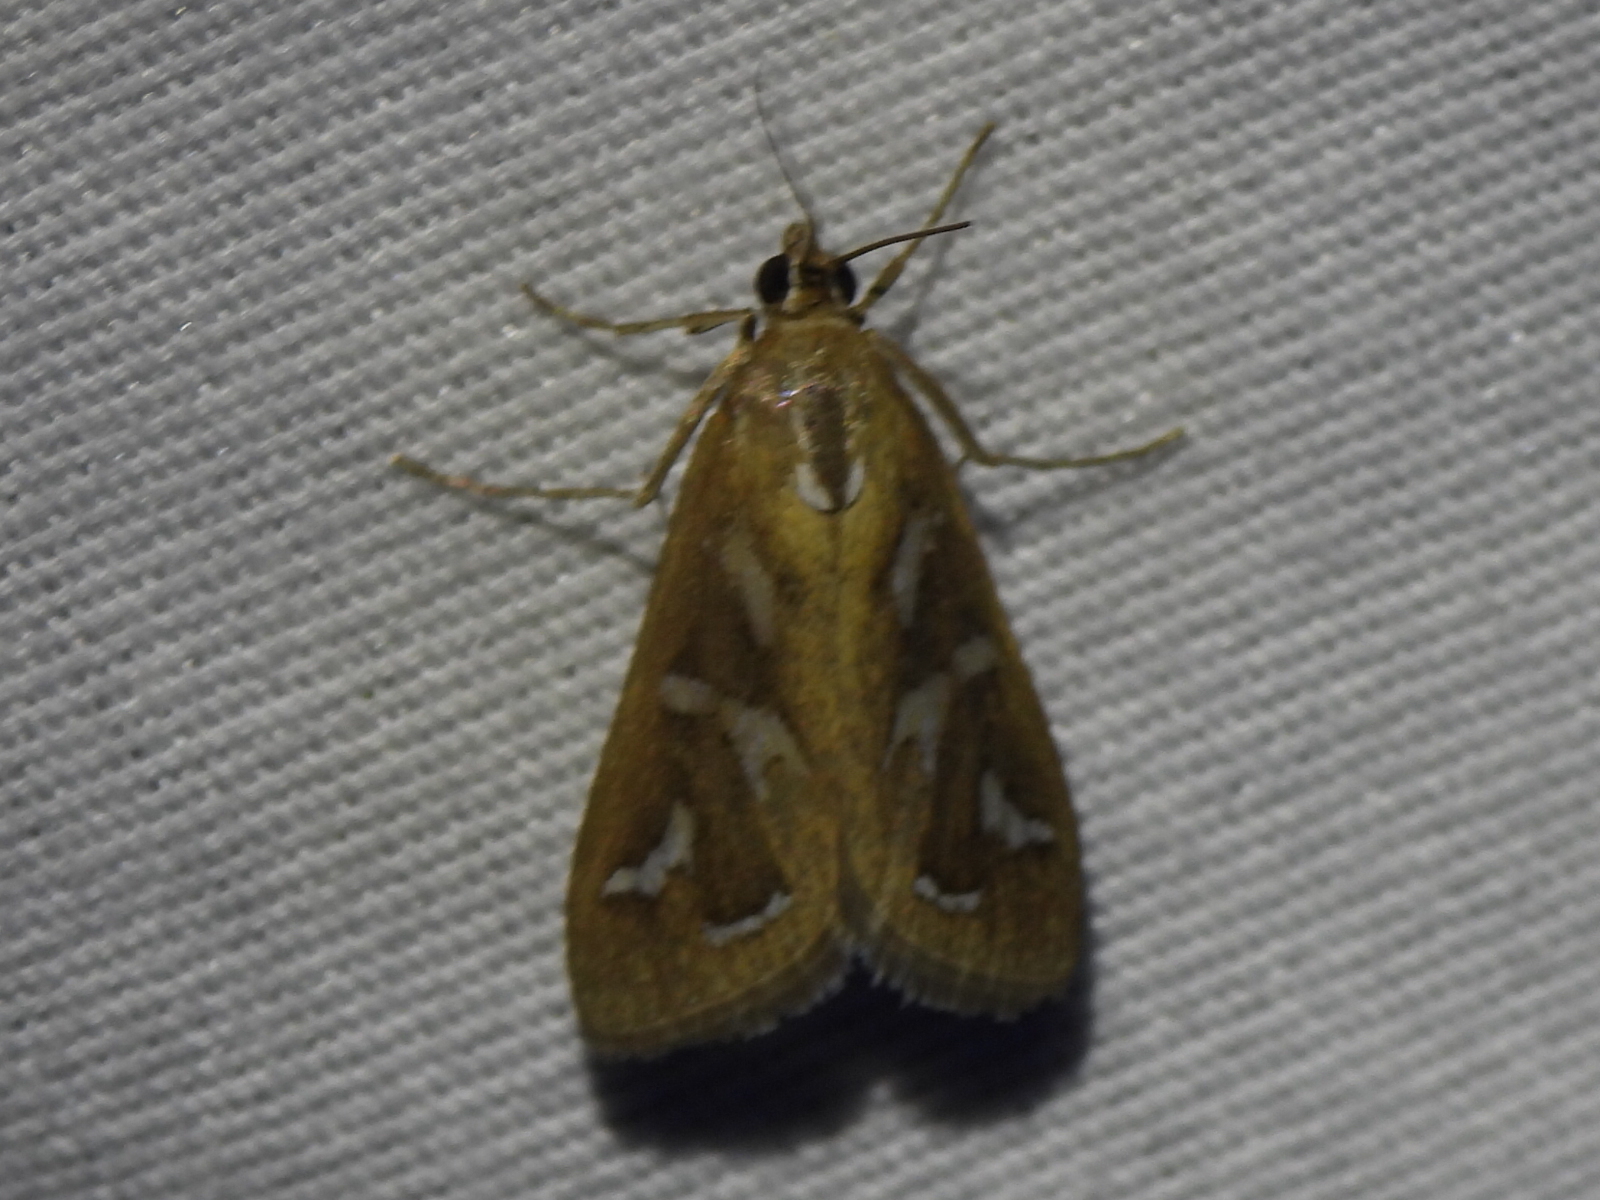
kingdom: Animalia
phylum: Arthropoda
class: Insecta
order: Lepidoptera
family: Crambidae
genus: Diastictis
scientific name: Diastictis fracturalis
